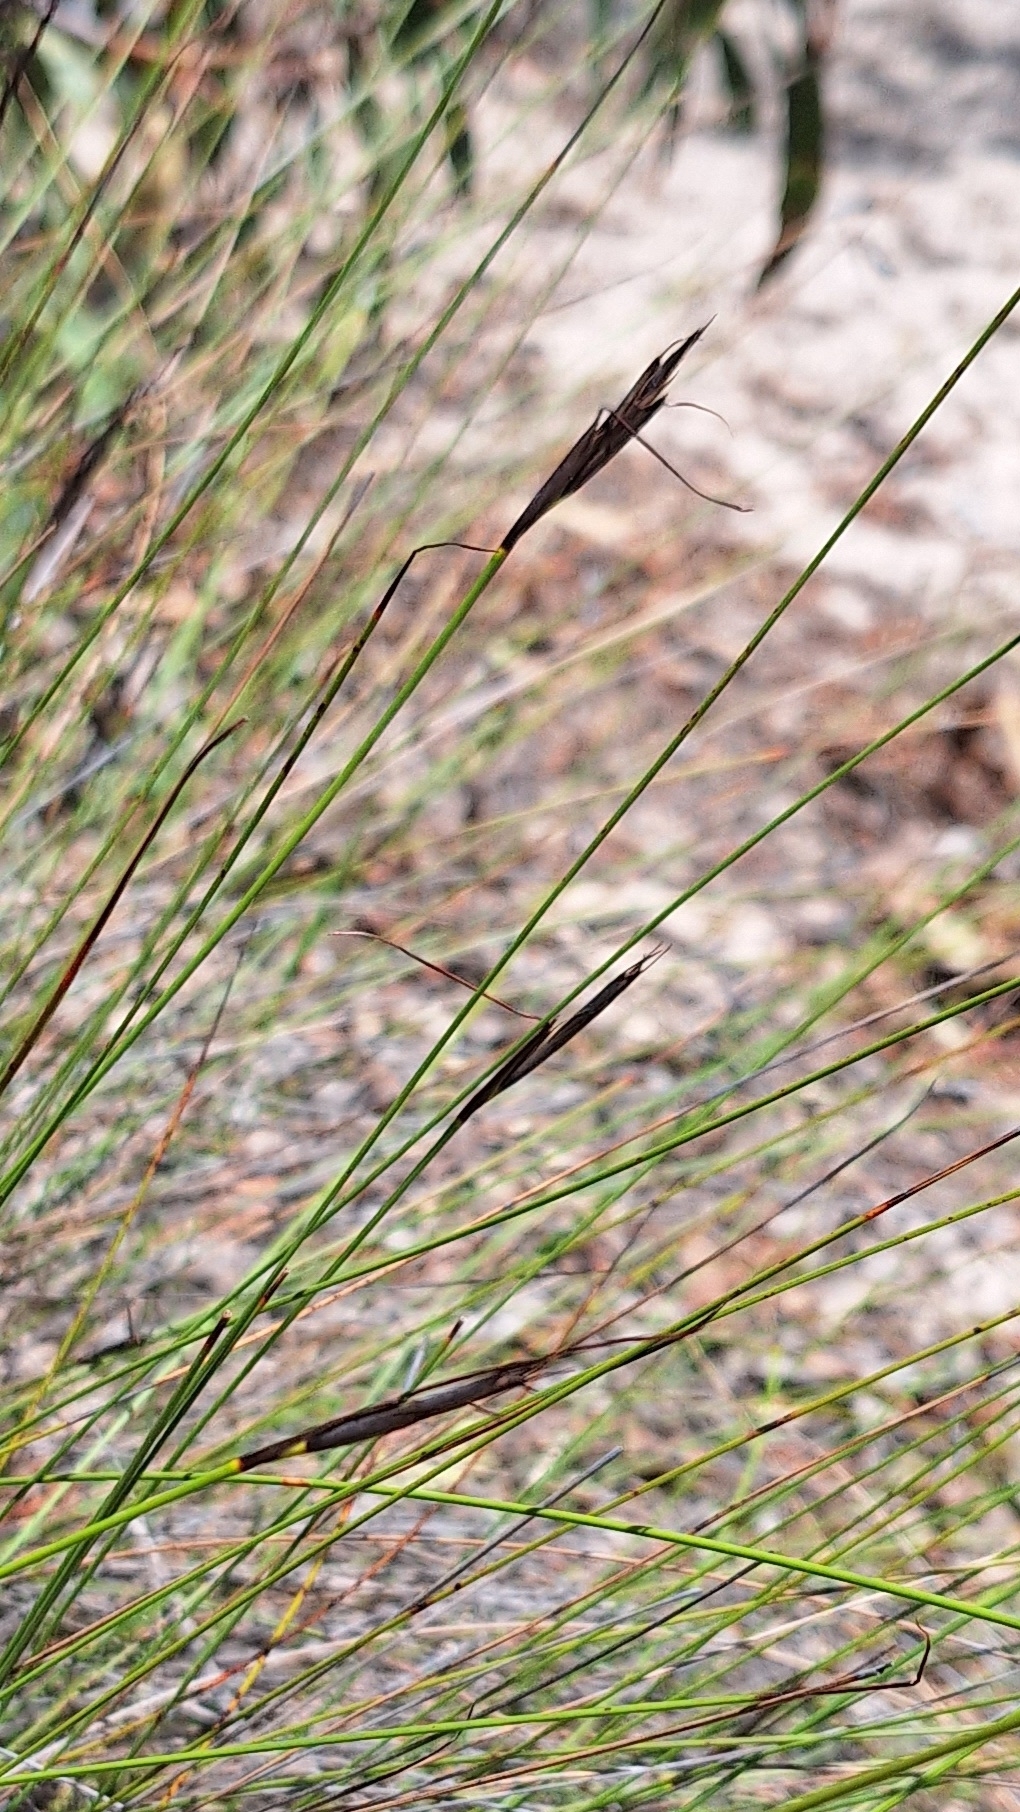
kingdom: Plantae
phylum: Tracheophyta
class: Liliopsida
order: Poales
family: Cyperaceae
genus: Lepidosperma
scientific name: Lepidosperma carphoides
